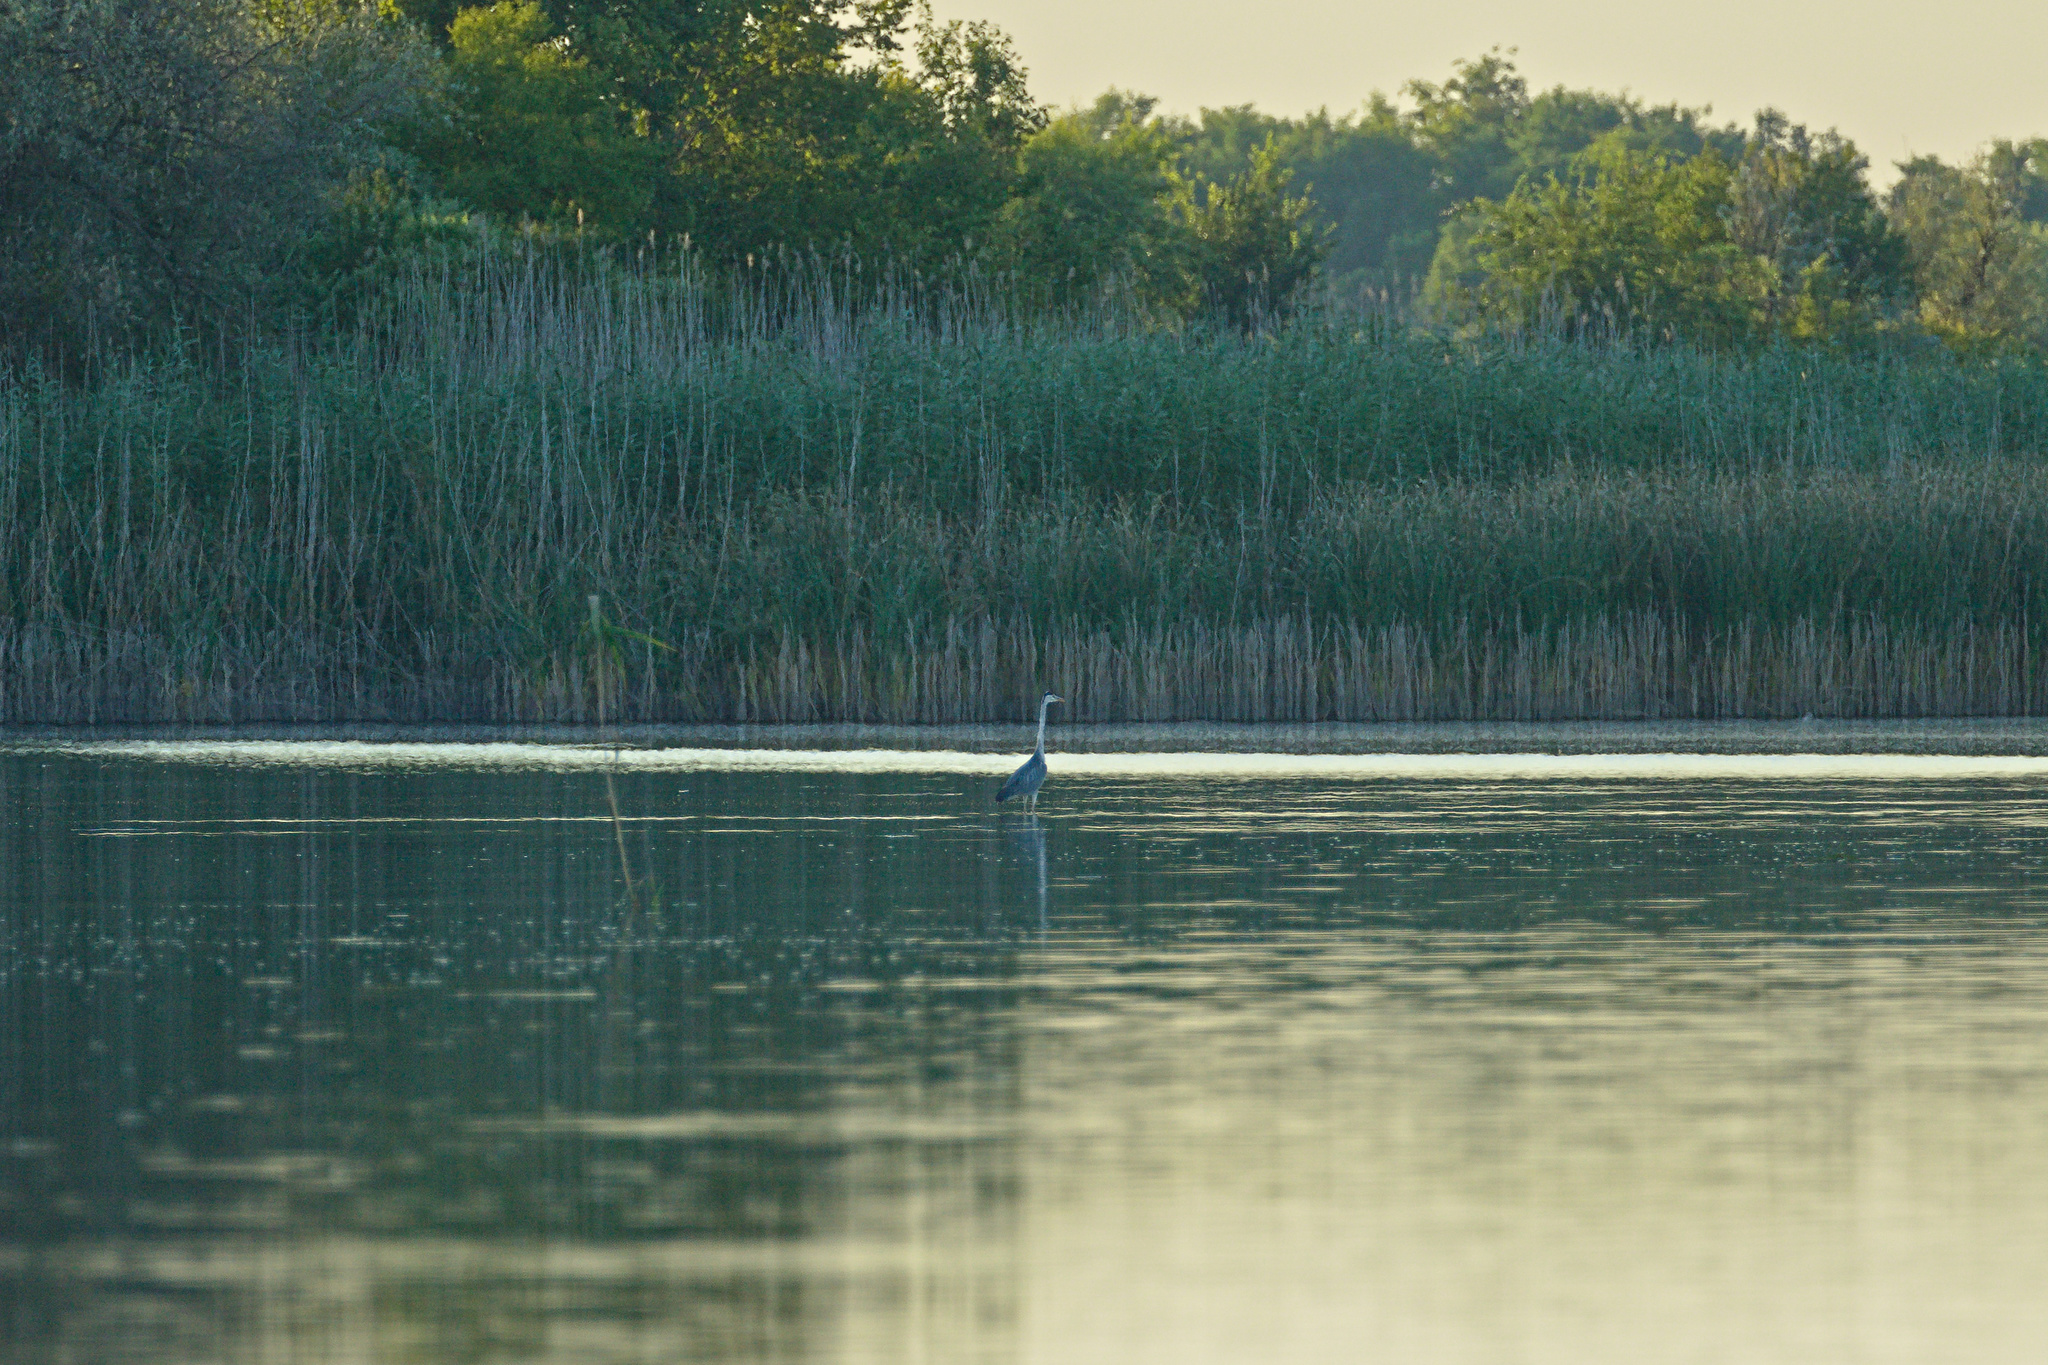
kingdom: Animalia
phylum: Chordata
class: Aves
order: Pelecaniformes
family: Ardeidae
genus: Ardea
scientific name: Ardea cinerea
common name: Grey heron
